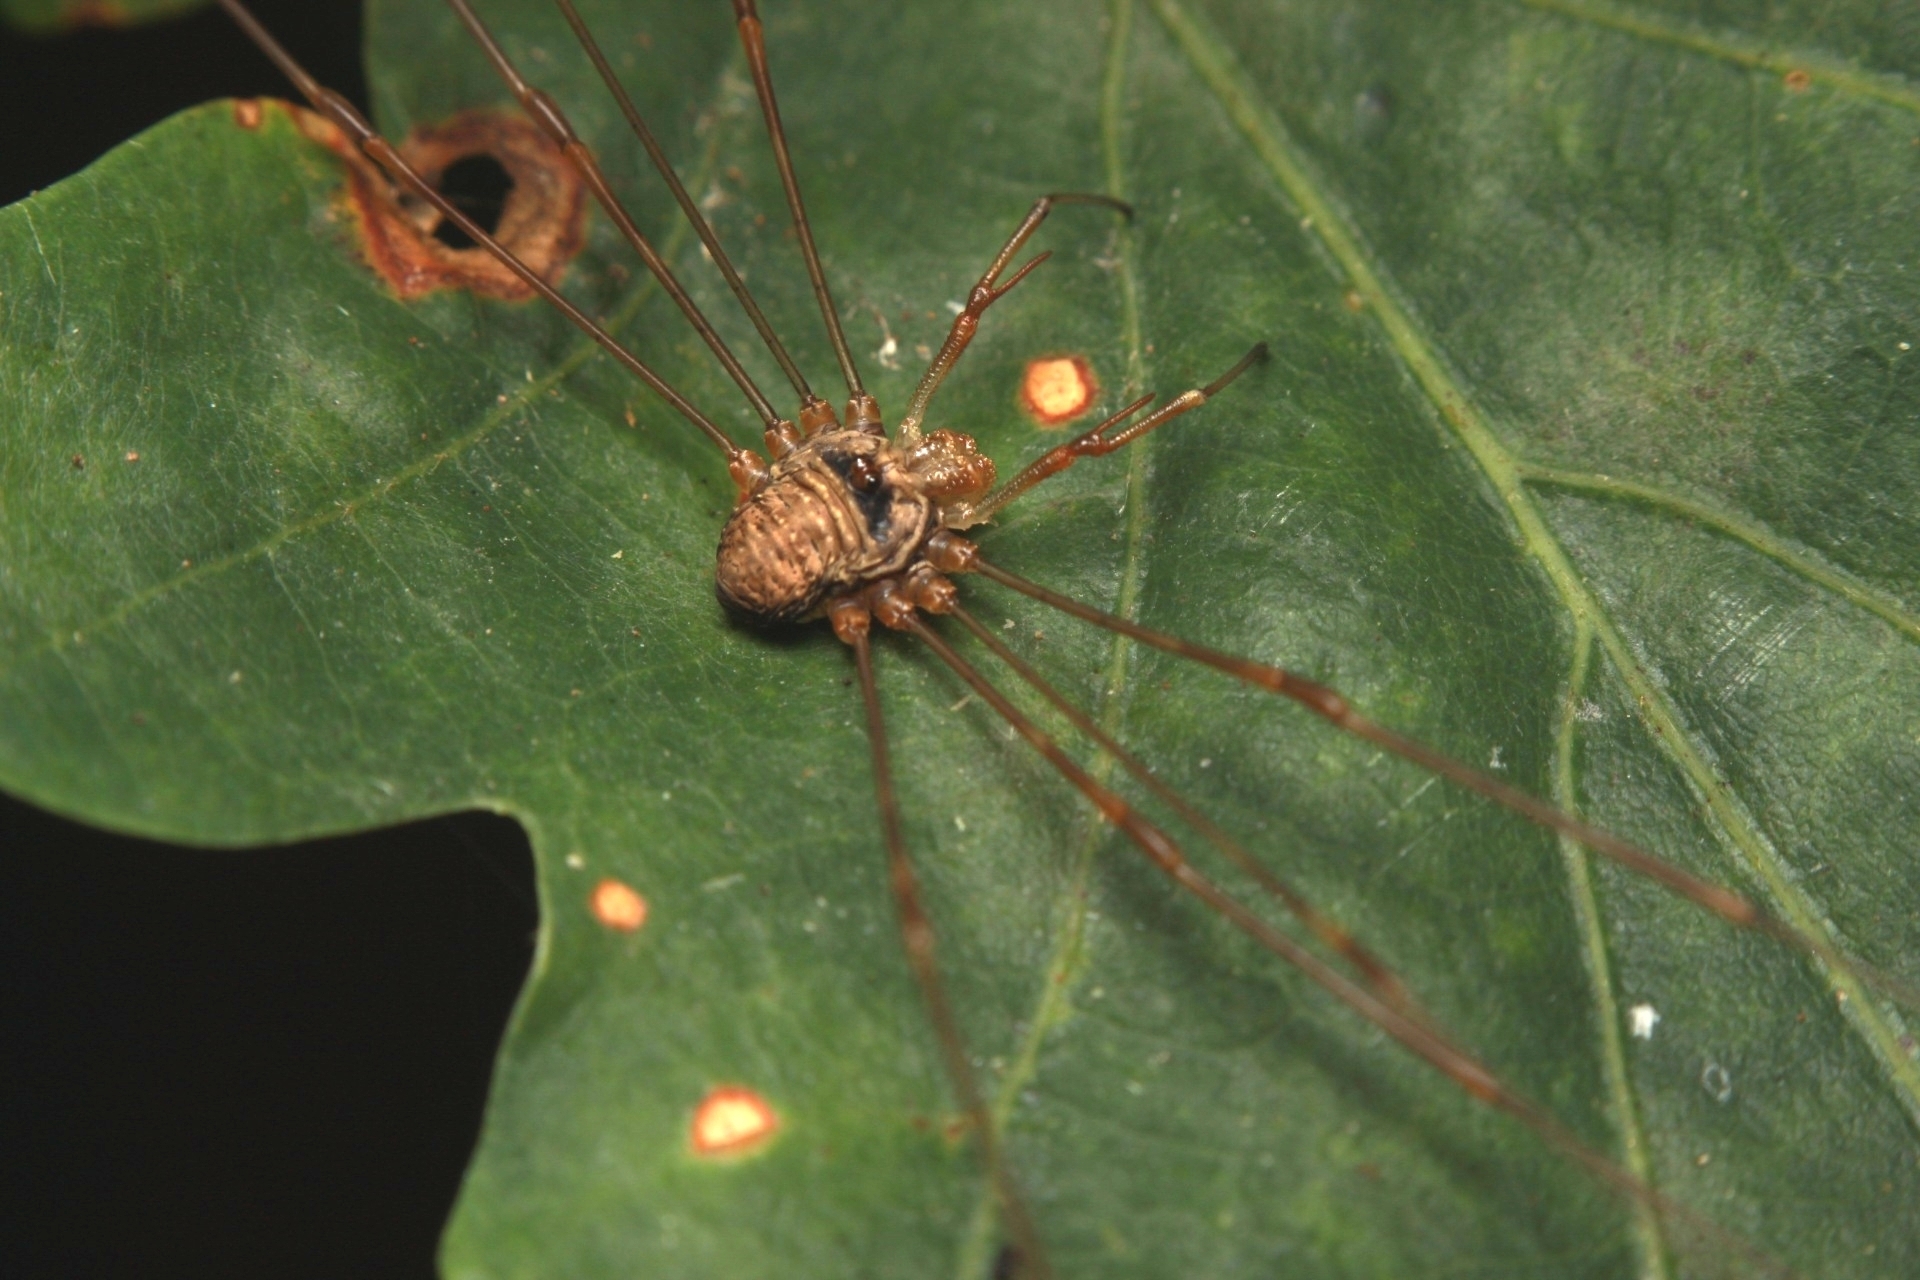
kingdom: Animalia
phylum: Arthropoda
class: Arachnida
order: Opiliones
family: Phalangiidae
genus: Dicranopalpus
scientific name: Dicranopalpus ramosus
